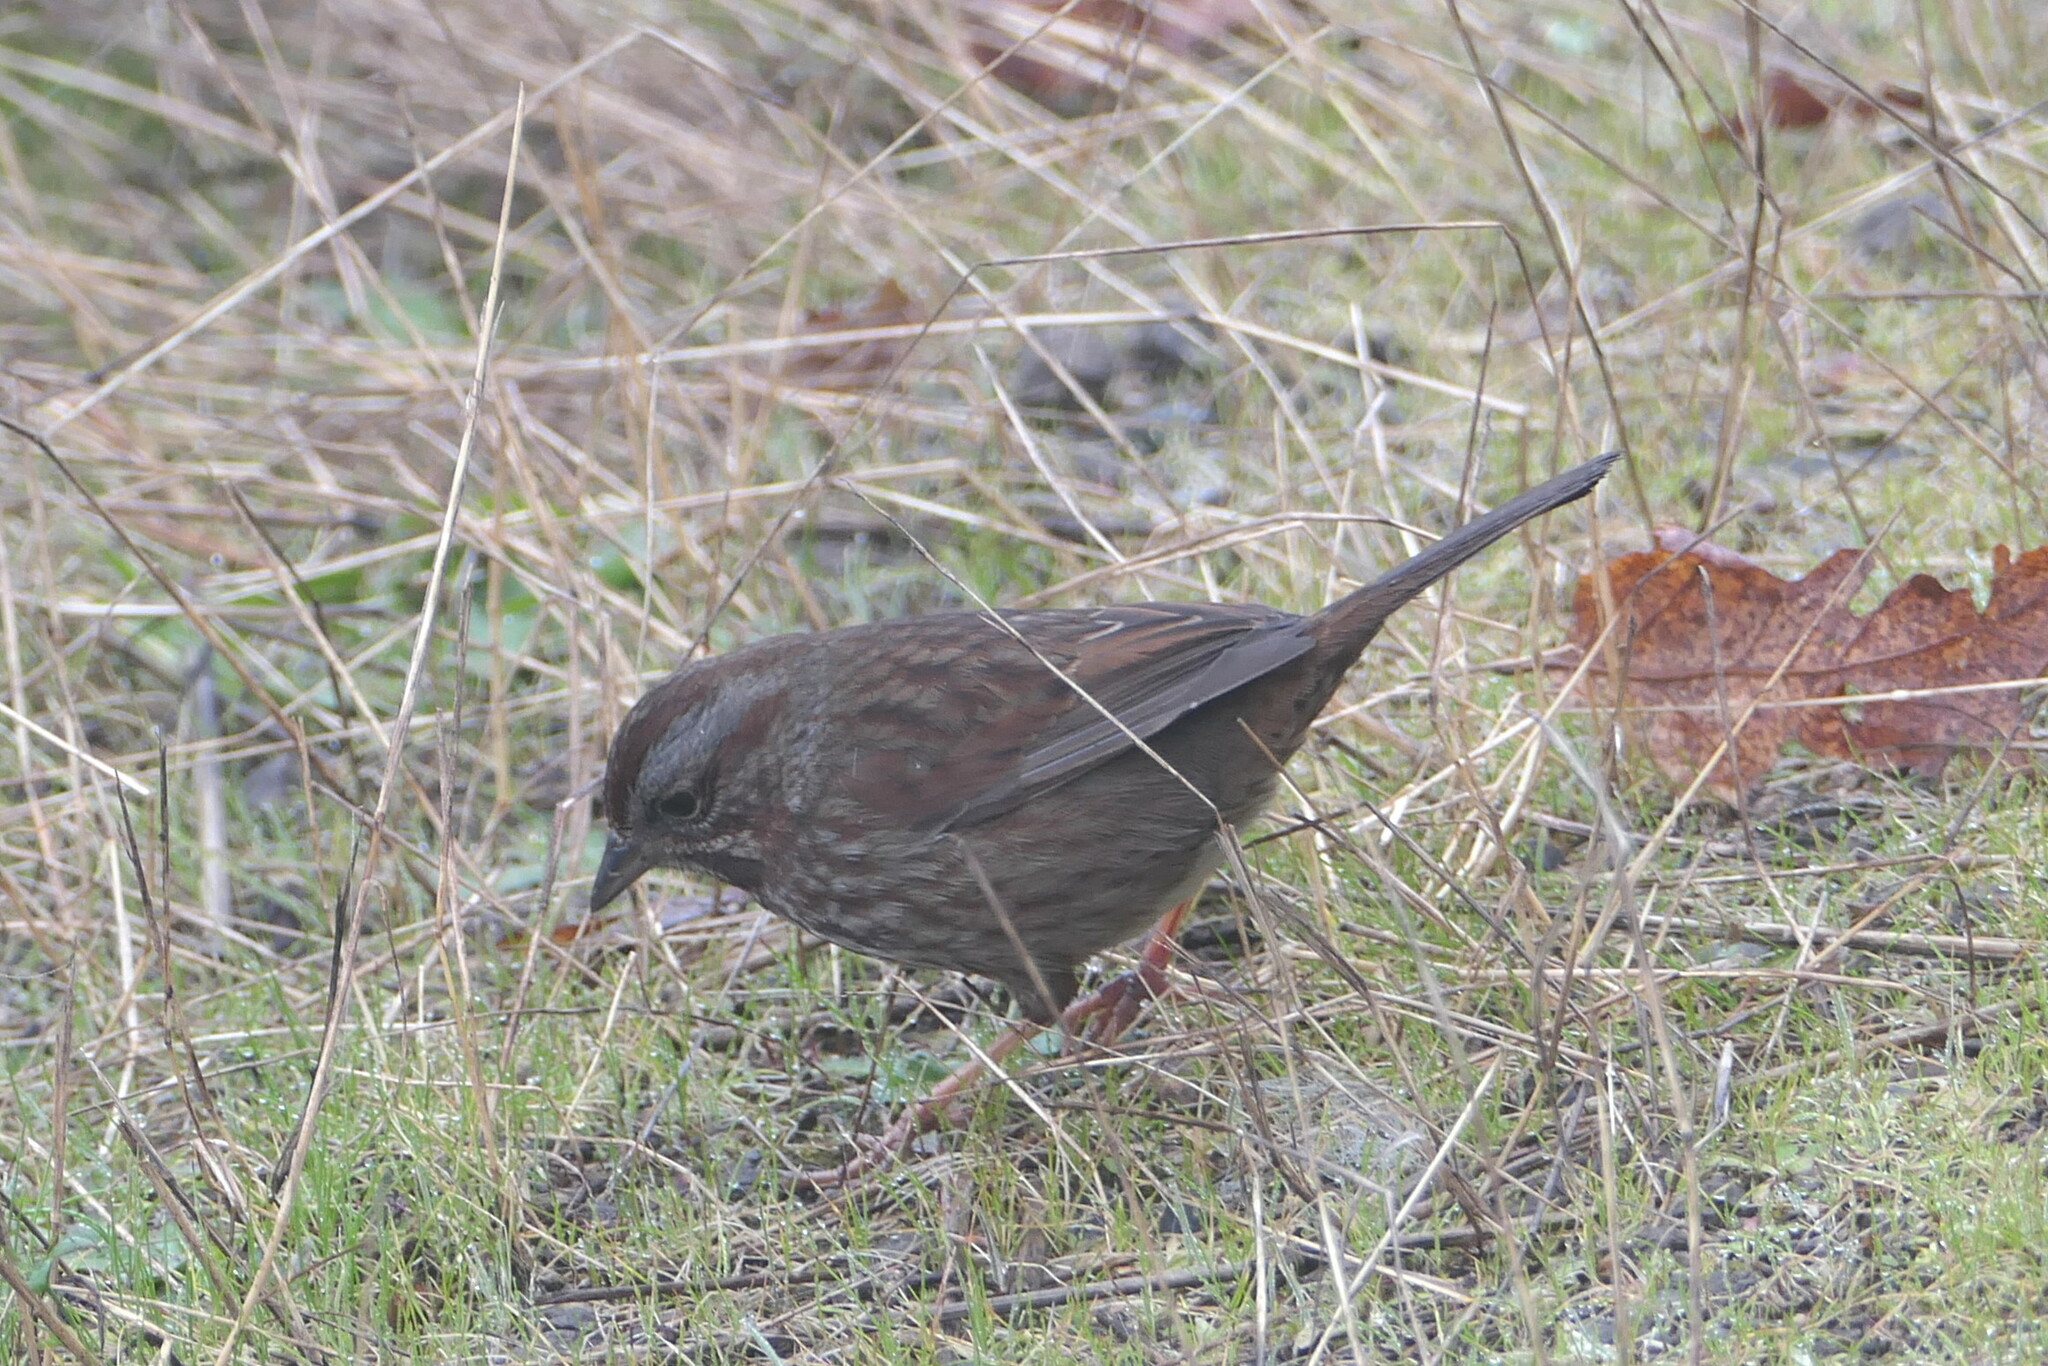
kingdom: Animalia
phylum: Chordata
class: Aves
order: Passeriformes
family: Passerellidae
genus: Melospiza
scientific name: Melospiza melodia
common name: Song sparrow
